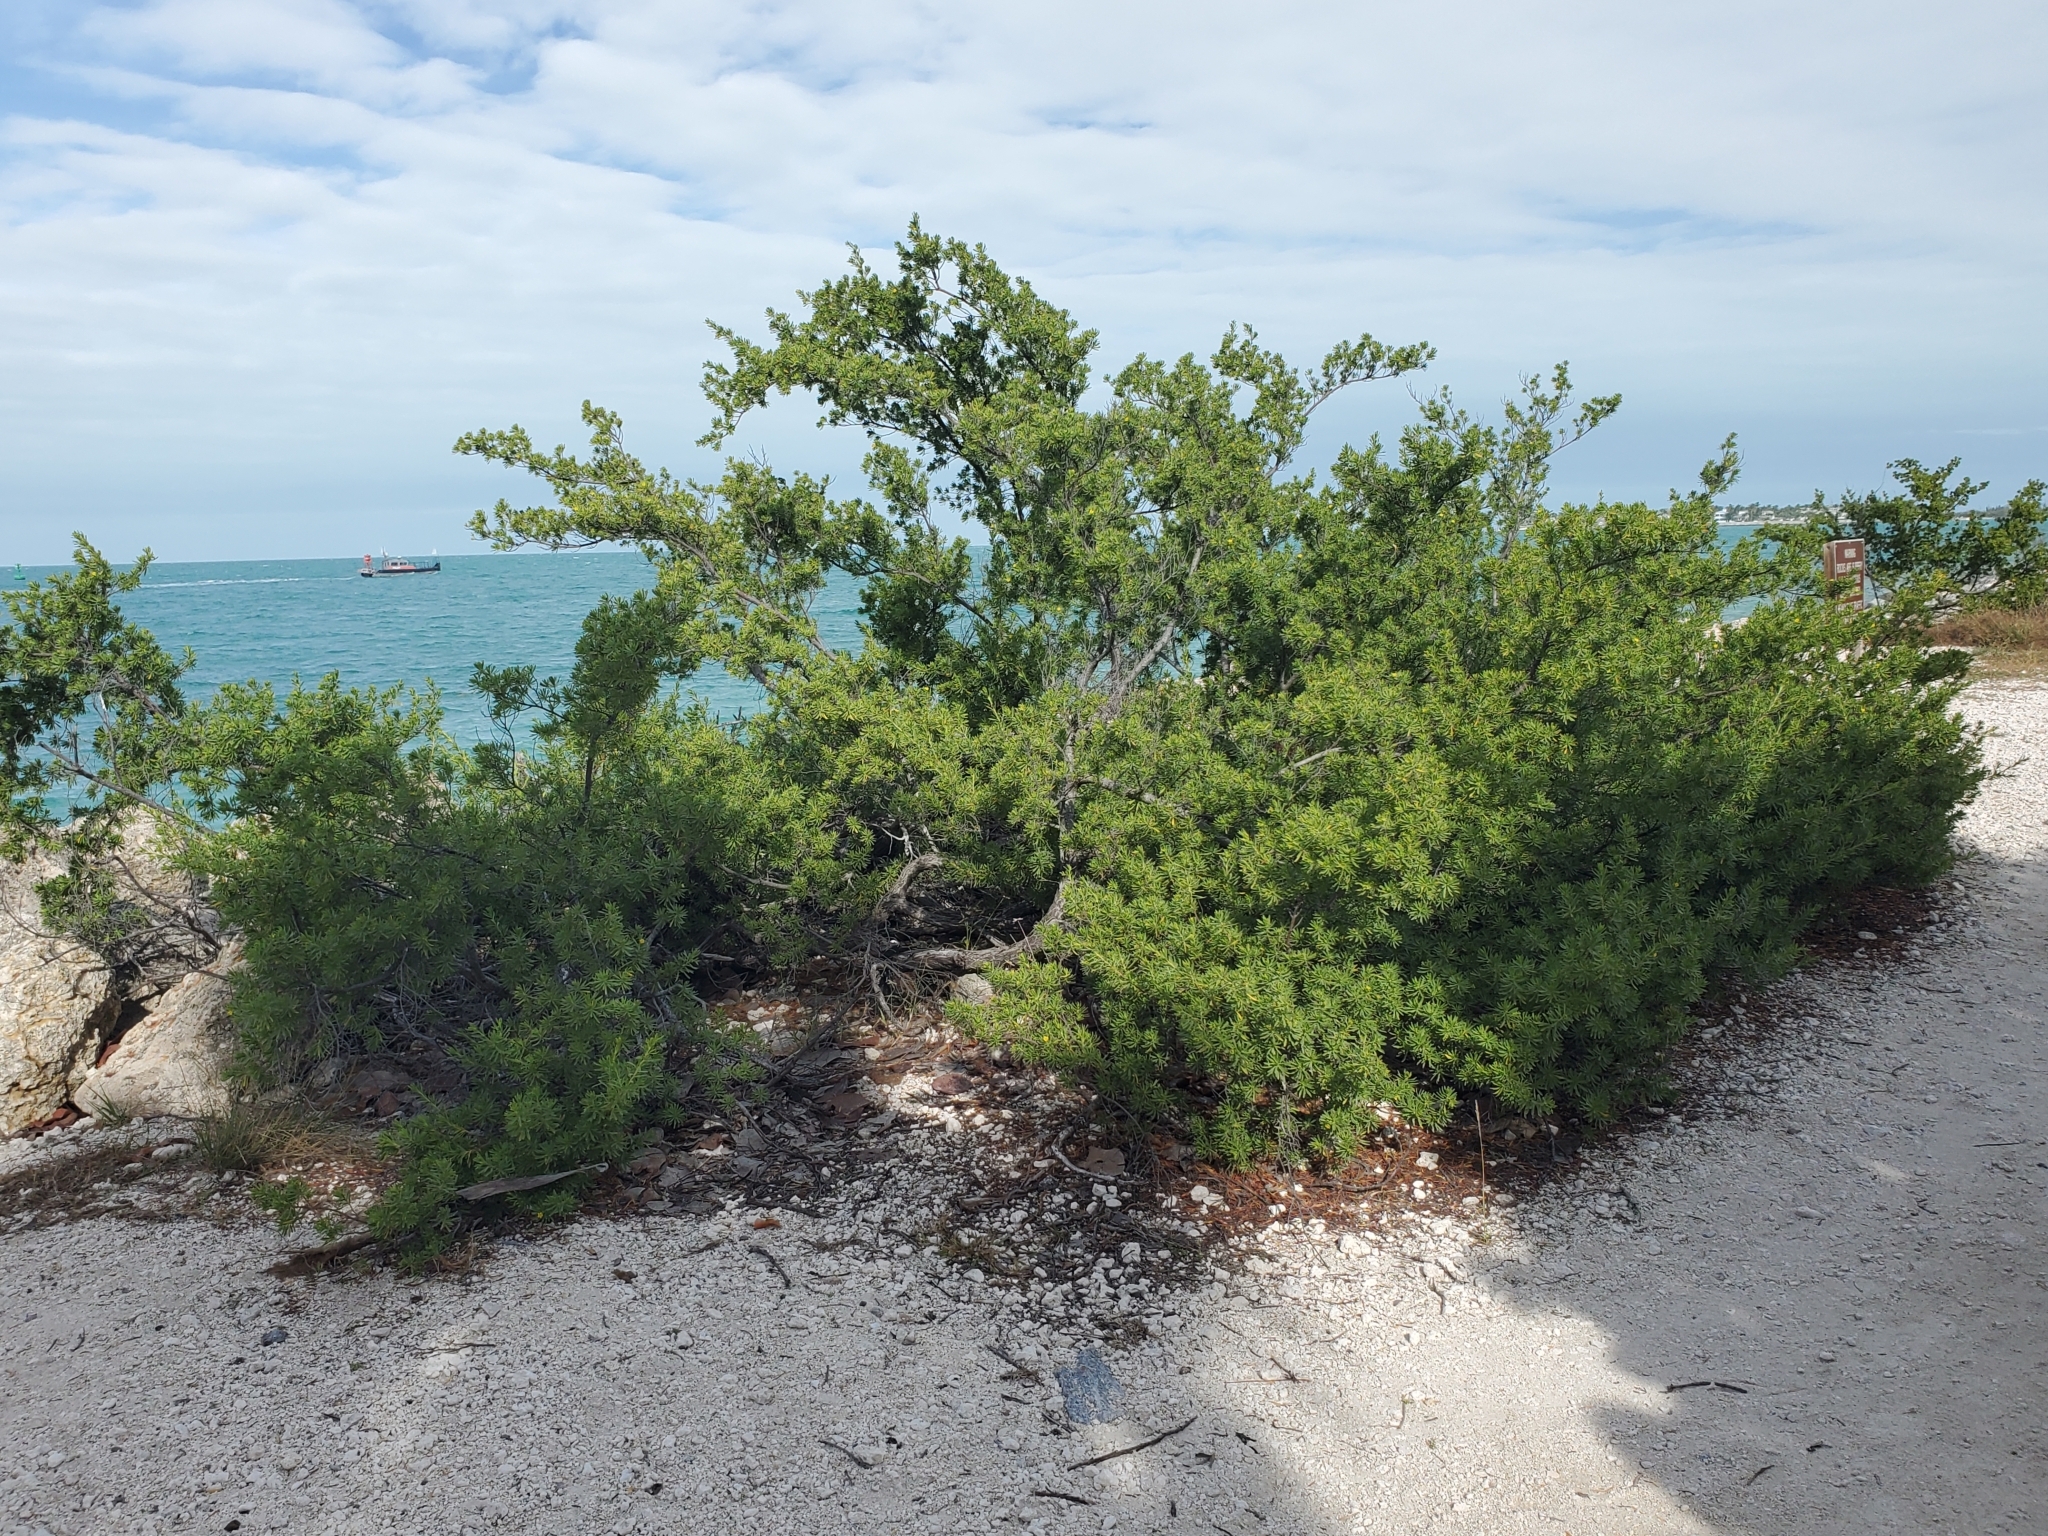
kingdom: Plantae
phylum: Tracheophyta
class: Magnoliopsida
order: Fabales
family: Surianaceae
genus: Suriana
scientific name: Suriana maritima
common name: Bay-cedar
